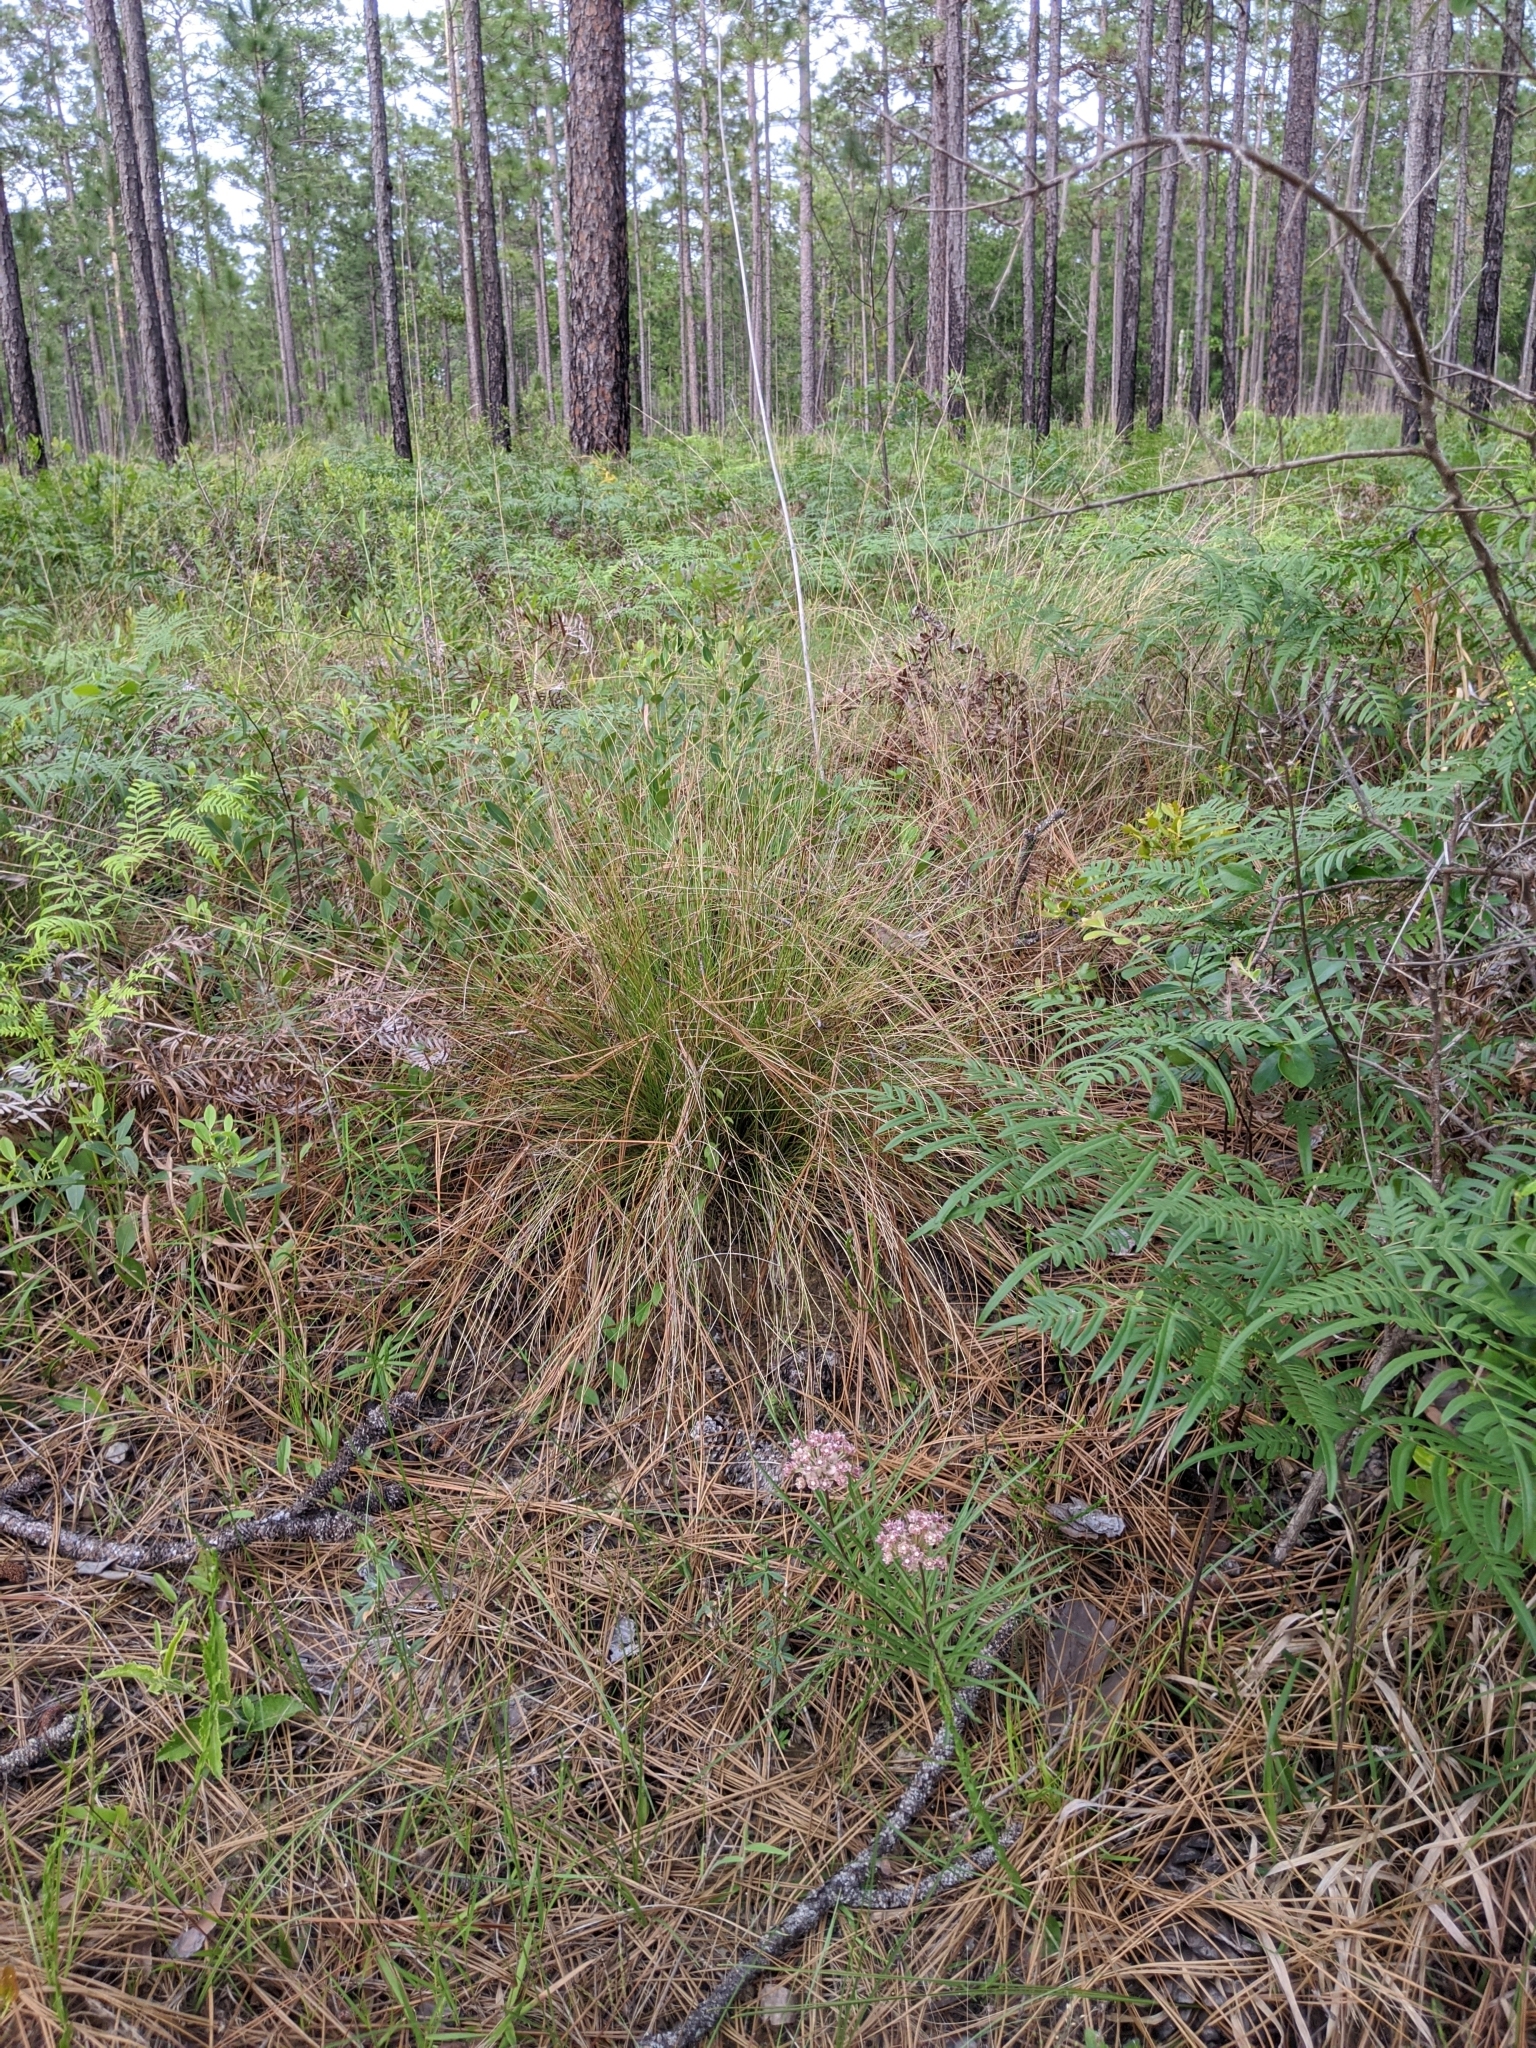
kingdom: Plantae
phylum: Tracheophyta
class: Magnoliopsida
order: Gentianales
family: Apocynaceae
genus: Asclepias
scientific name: Asclepias michauxii
